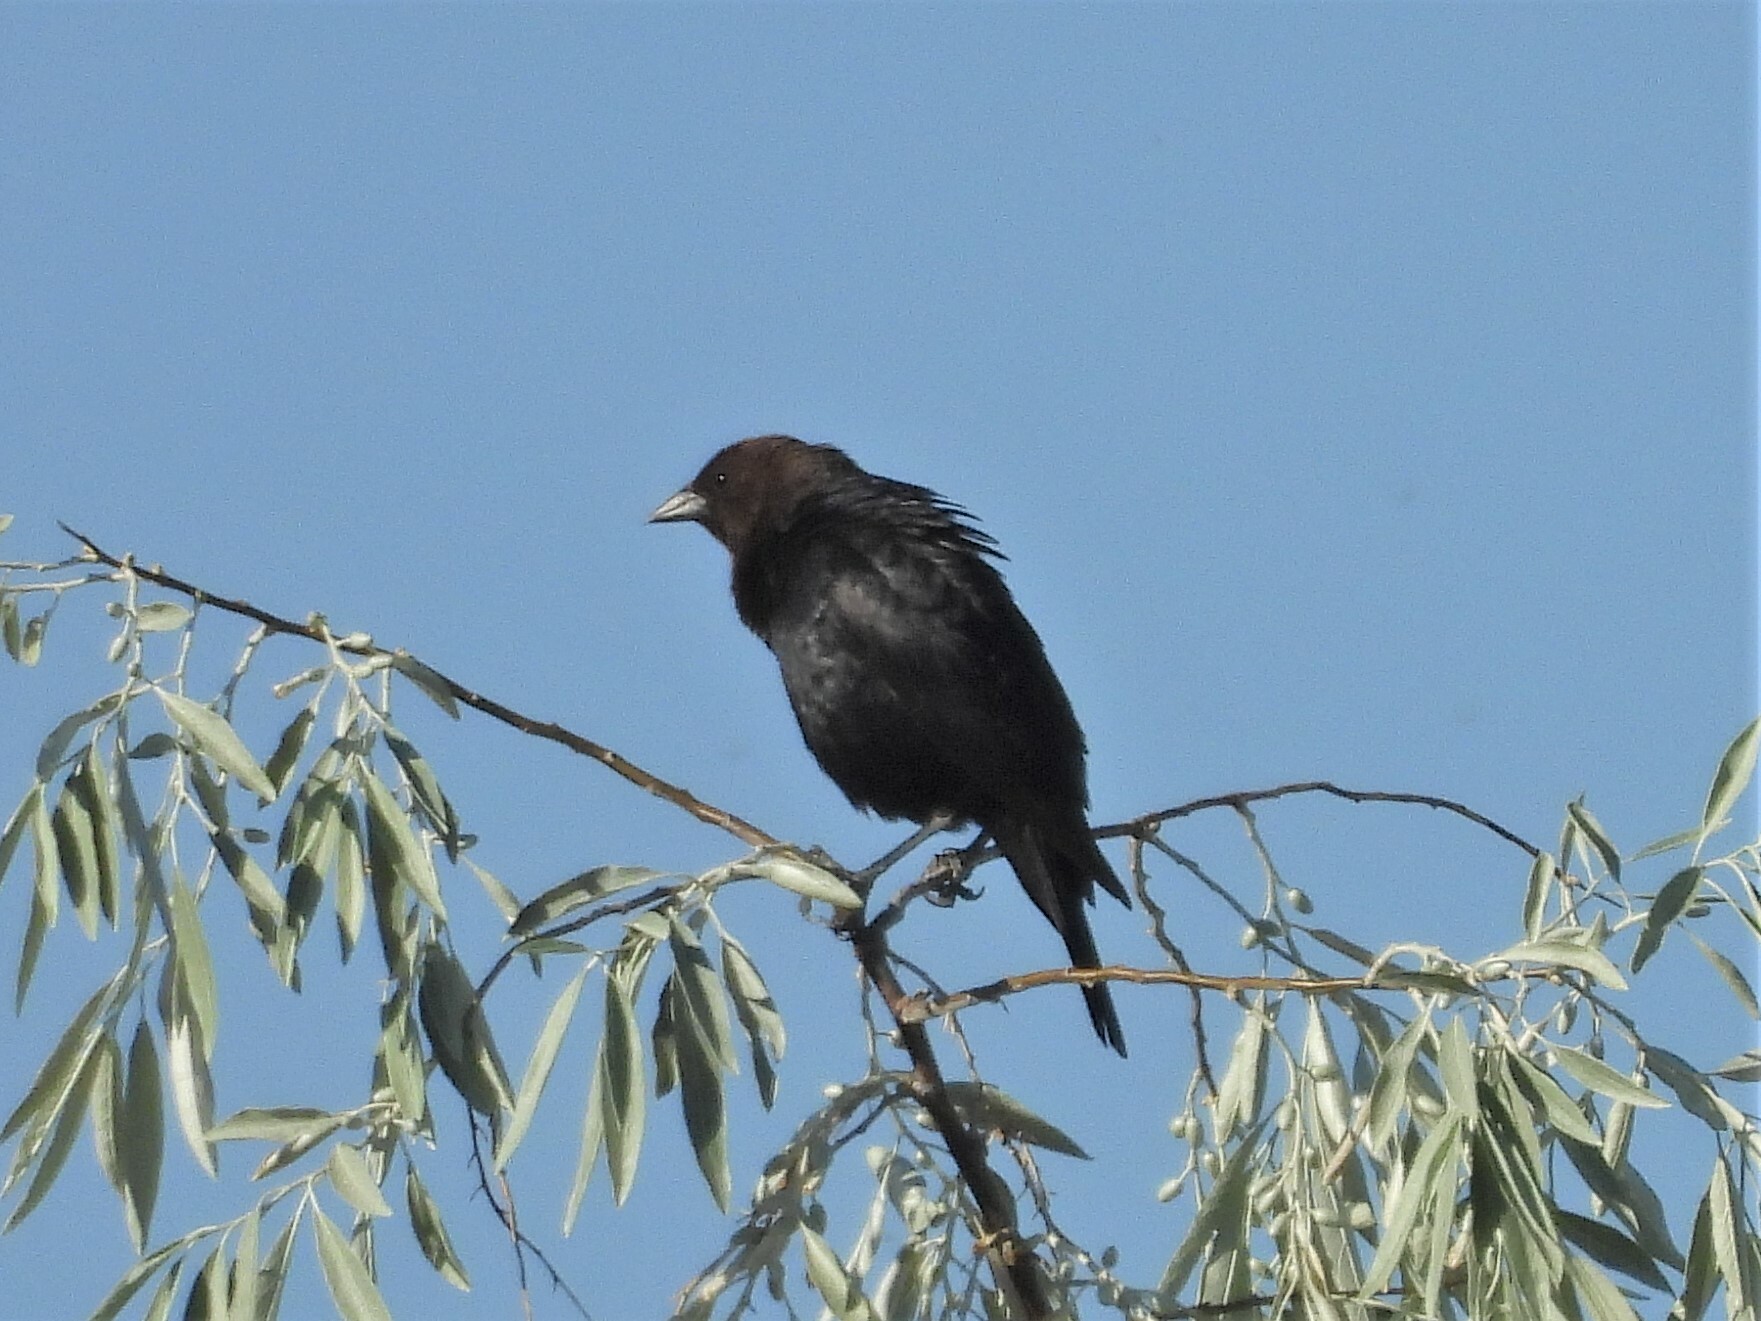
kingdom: Animalia
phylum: Chordata
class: Aves
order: Passeriformes
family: Icteridae
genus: Molothrus
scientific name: Molothrus ater
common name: Brown-headed cowbird
